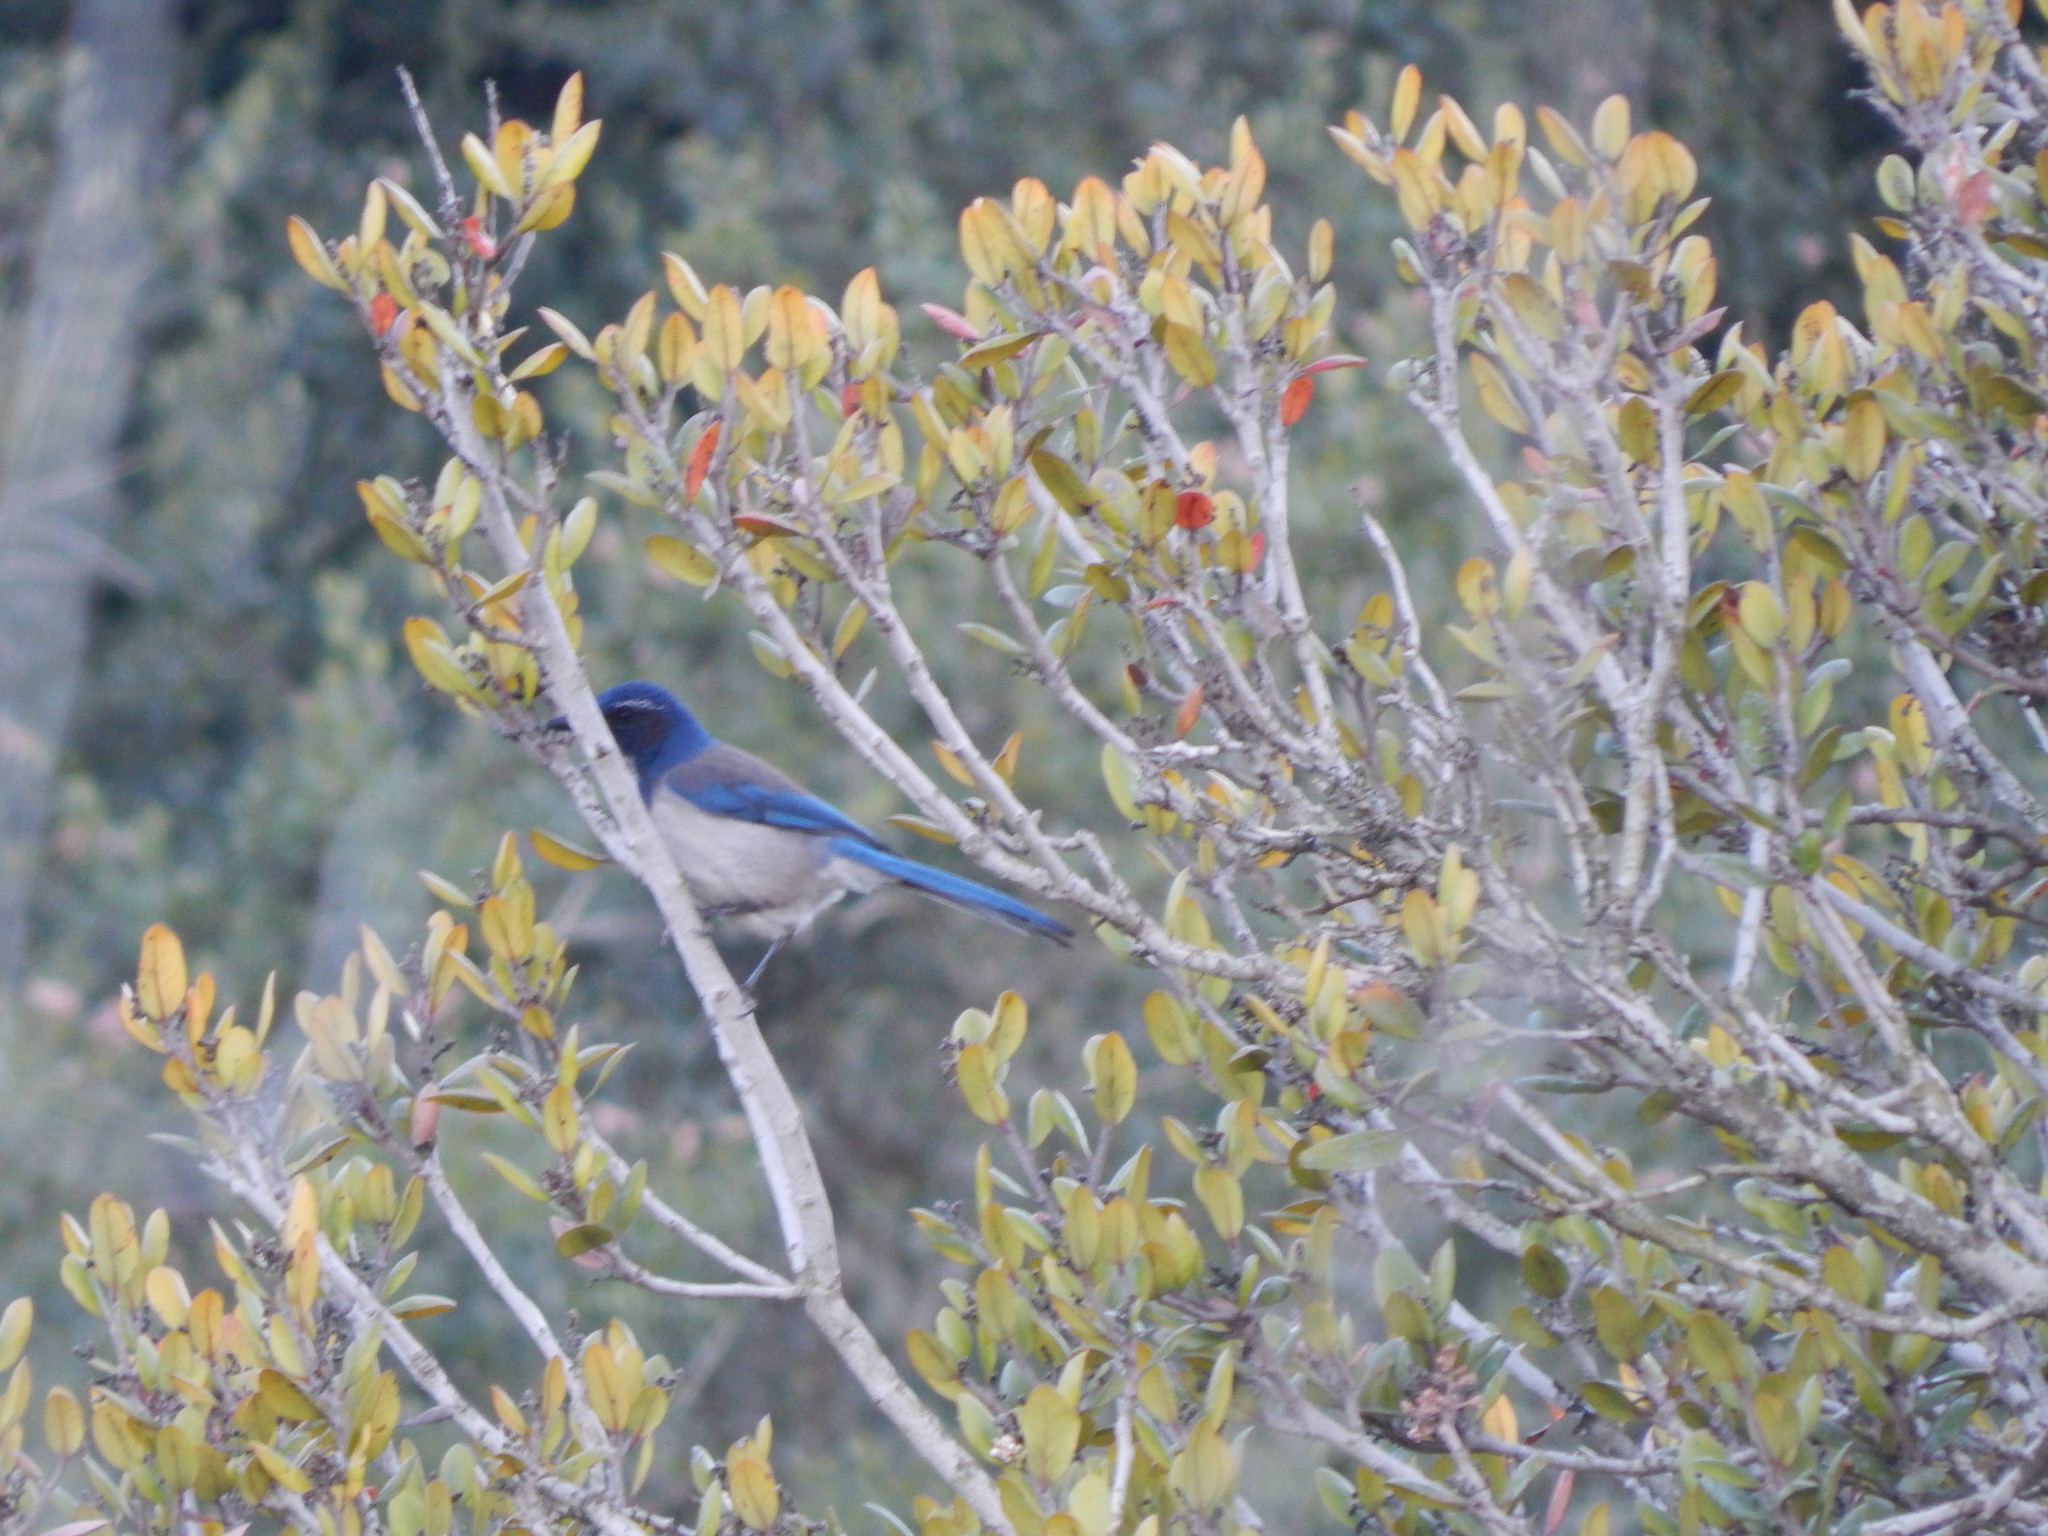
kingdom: Animalia
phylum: Chordata
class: Aves
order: Passeriformes
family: Corvidae
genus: Aphelocoma
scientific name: Aphelocoma californica
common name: California scrub-jay
